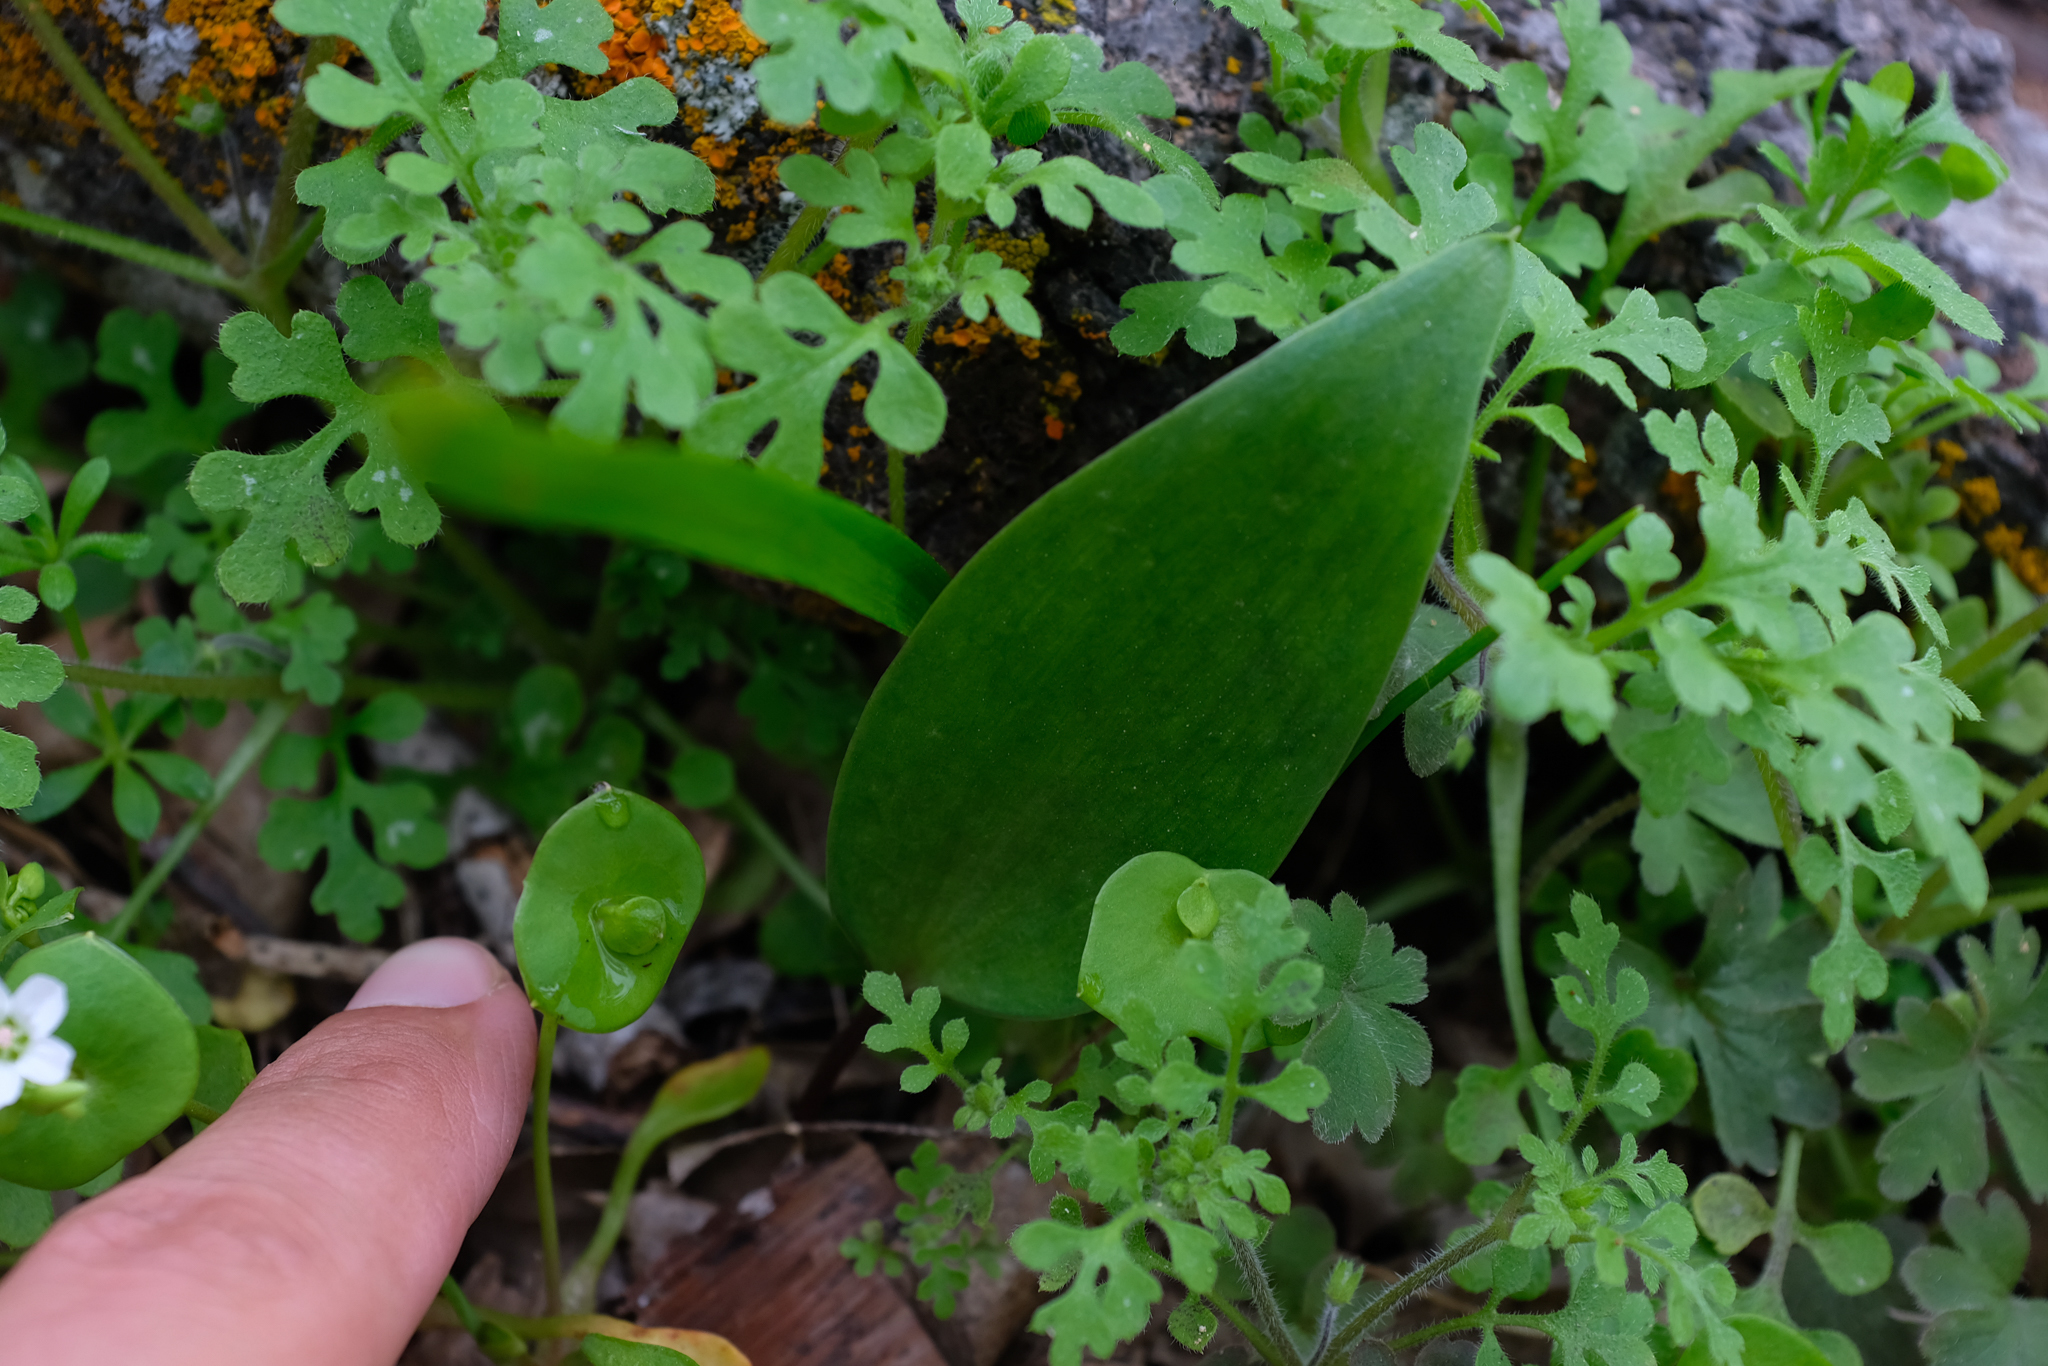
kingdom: Plantae
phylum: Tracheophyta
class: Liliopsida
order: Liliales
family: Liliaceae
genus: Fritillaria
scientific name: Fritillaria brandegeei
